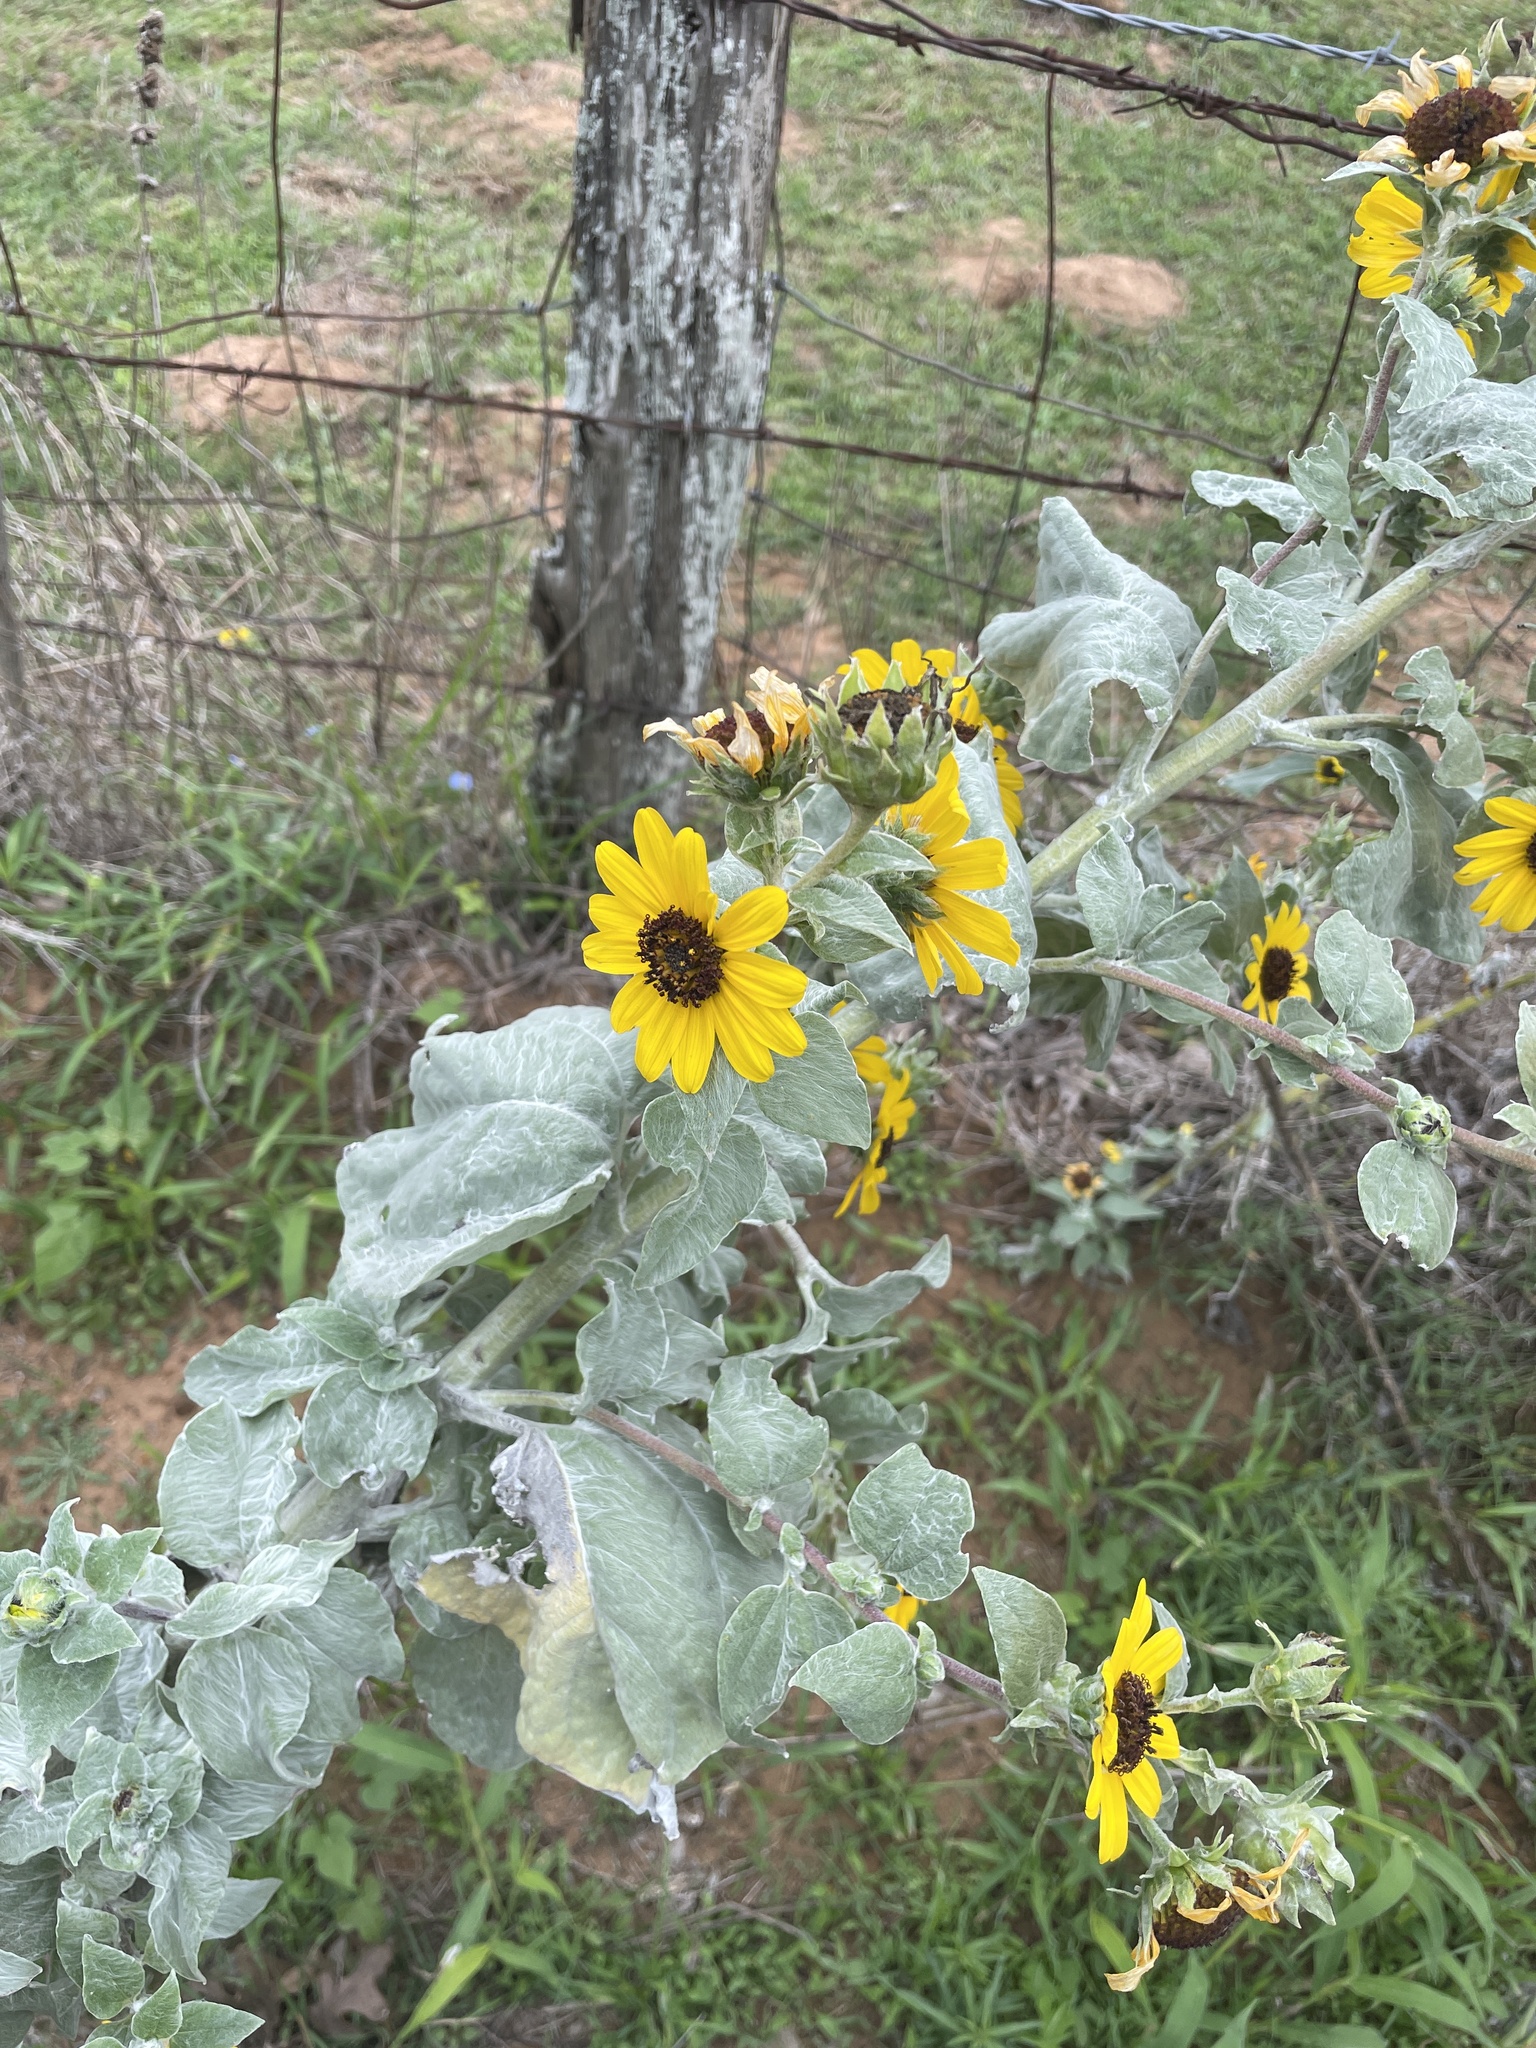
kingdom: Plantae
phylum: Tracheophyta
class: Magnoliopsida
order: Asterales
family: Asteraceae
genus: Helianthus
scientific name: Helianthus argophyllus
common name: Silverleaf sunflower
